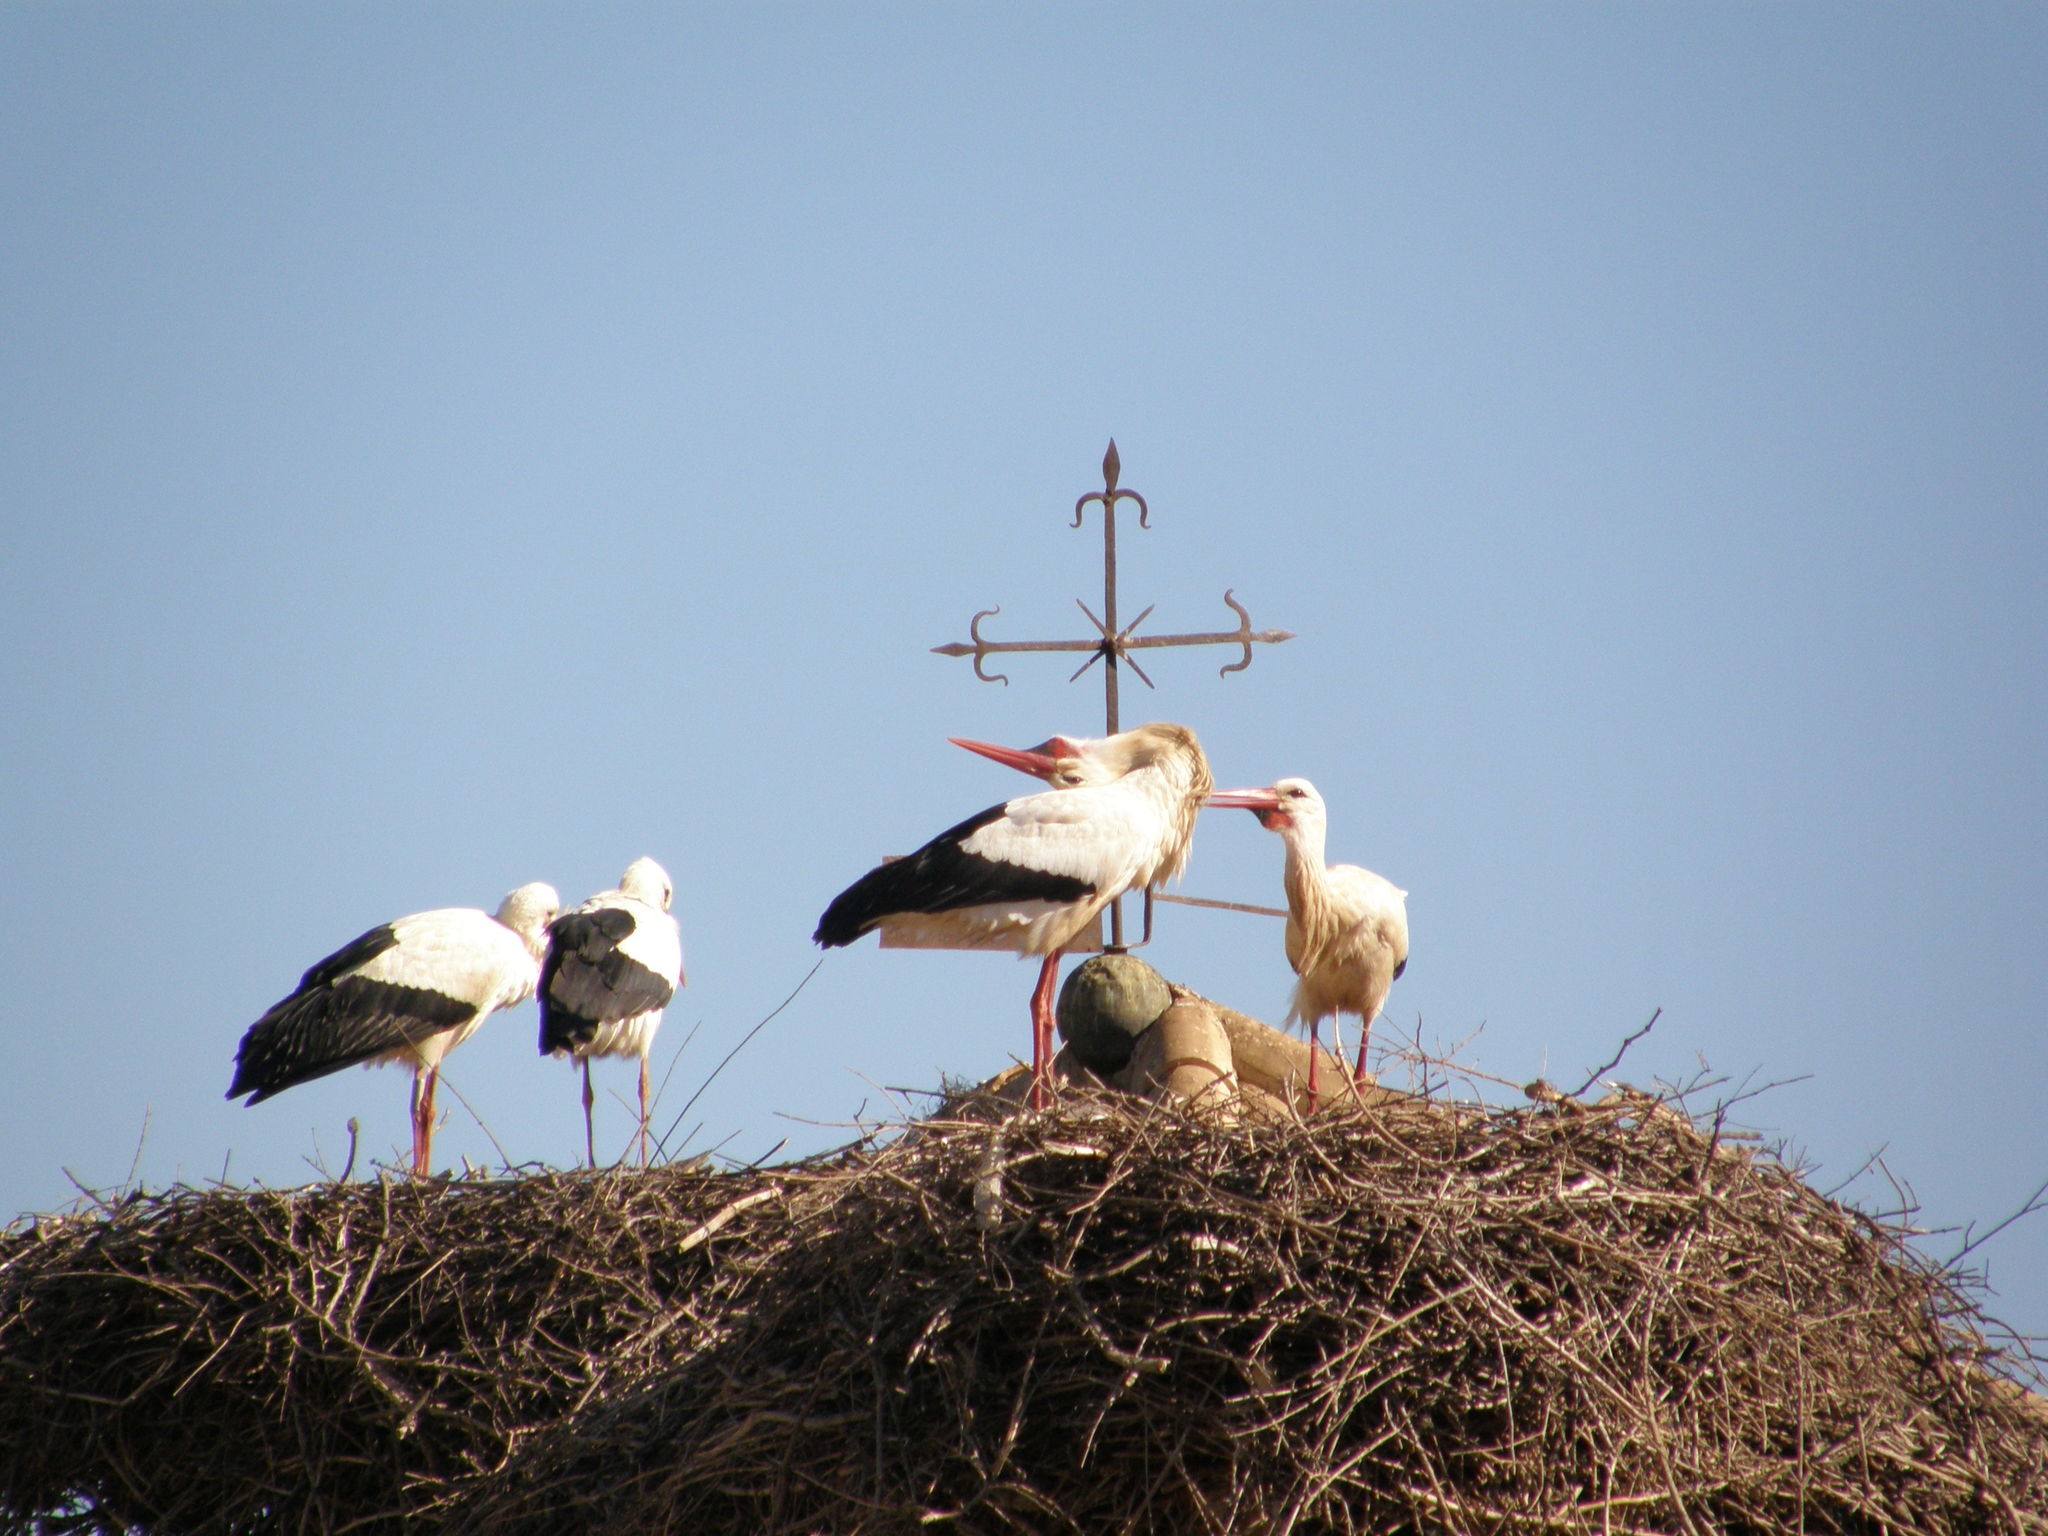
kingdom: Animalia
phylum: Chordata
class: Aves
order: Ciconiiformes
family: Ciconiidae
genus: Ciconia
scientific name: Ciconia ciconia
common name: White stork
